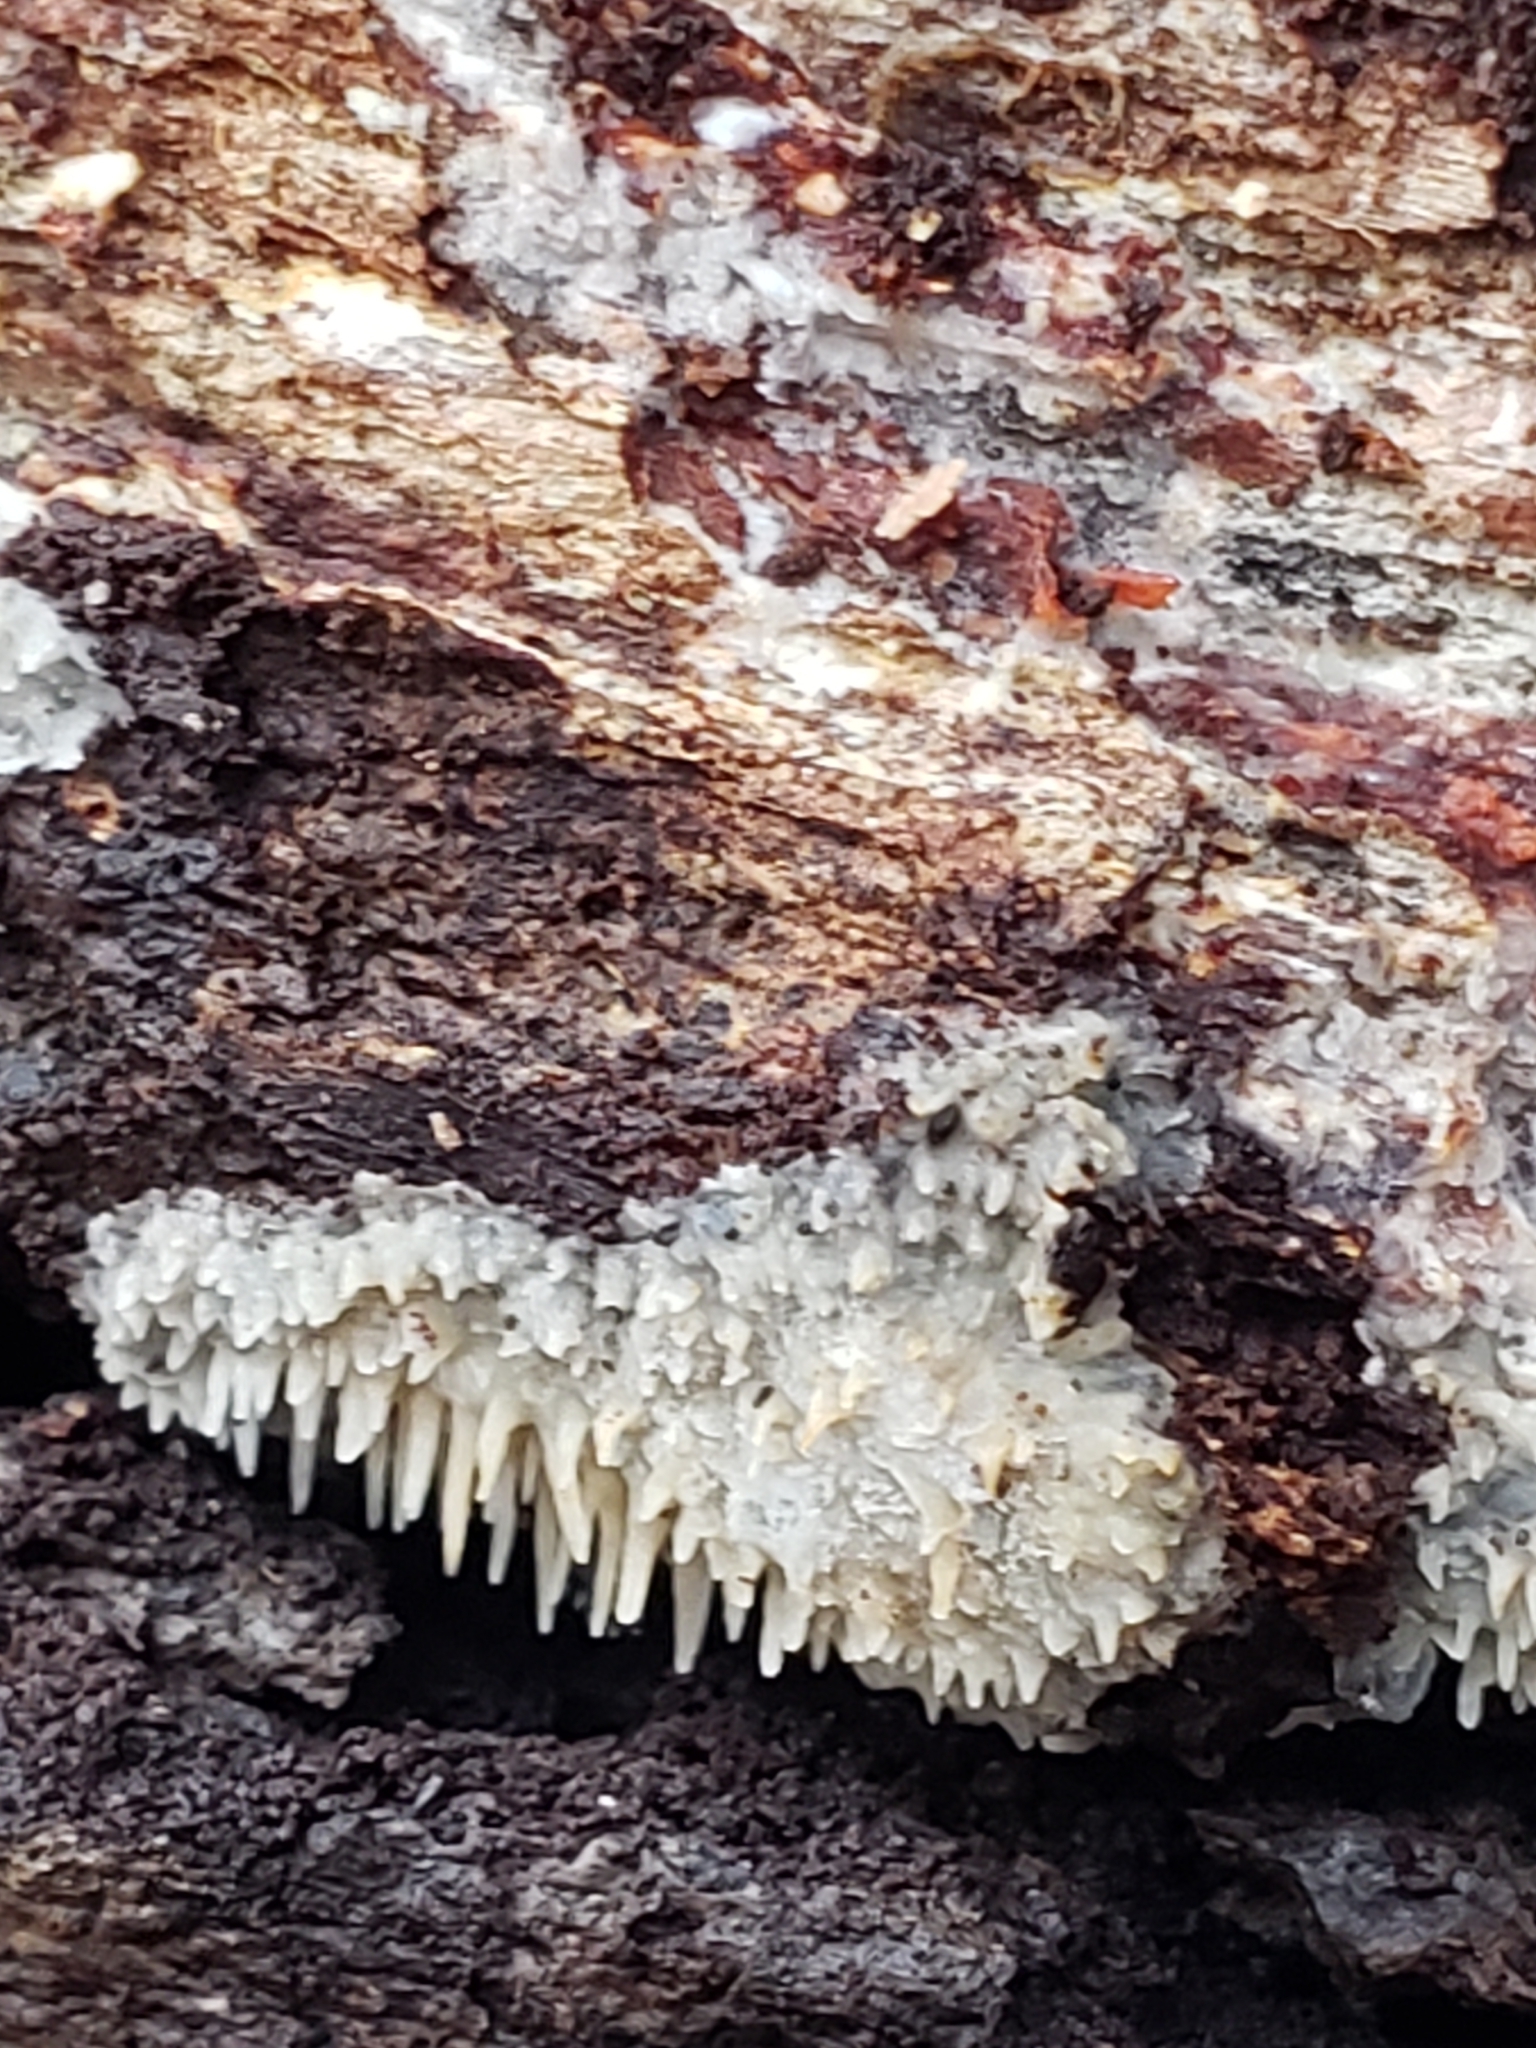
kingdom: Fungi
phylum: Basidiomycota
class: Agaricomycetes
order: Agaricales
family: Radulomycetaceae
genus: Radulomyces
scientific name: Radulomyces copelandii
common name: Asian beauty
